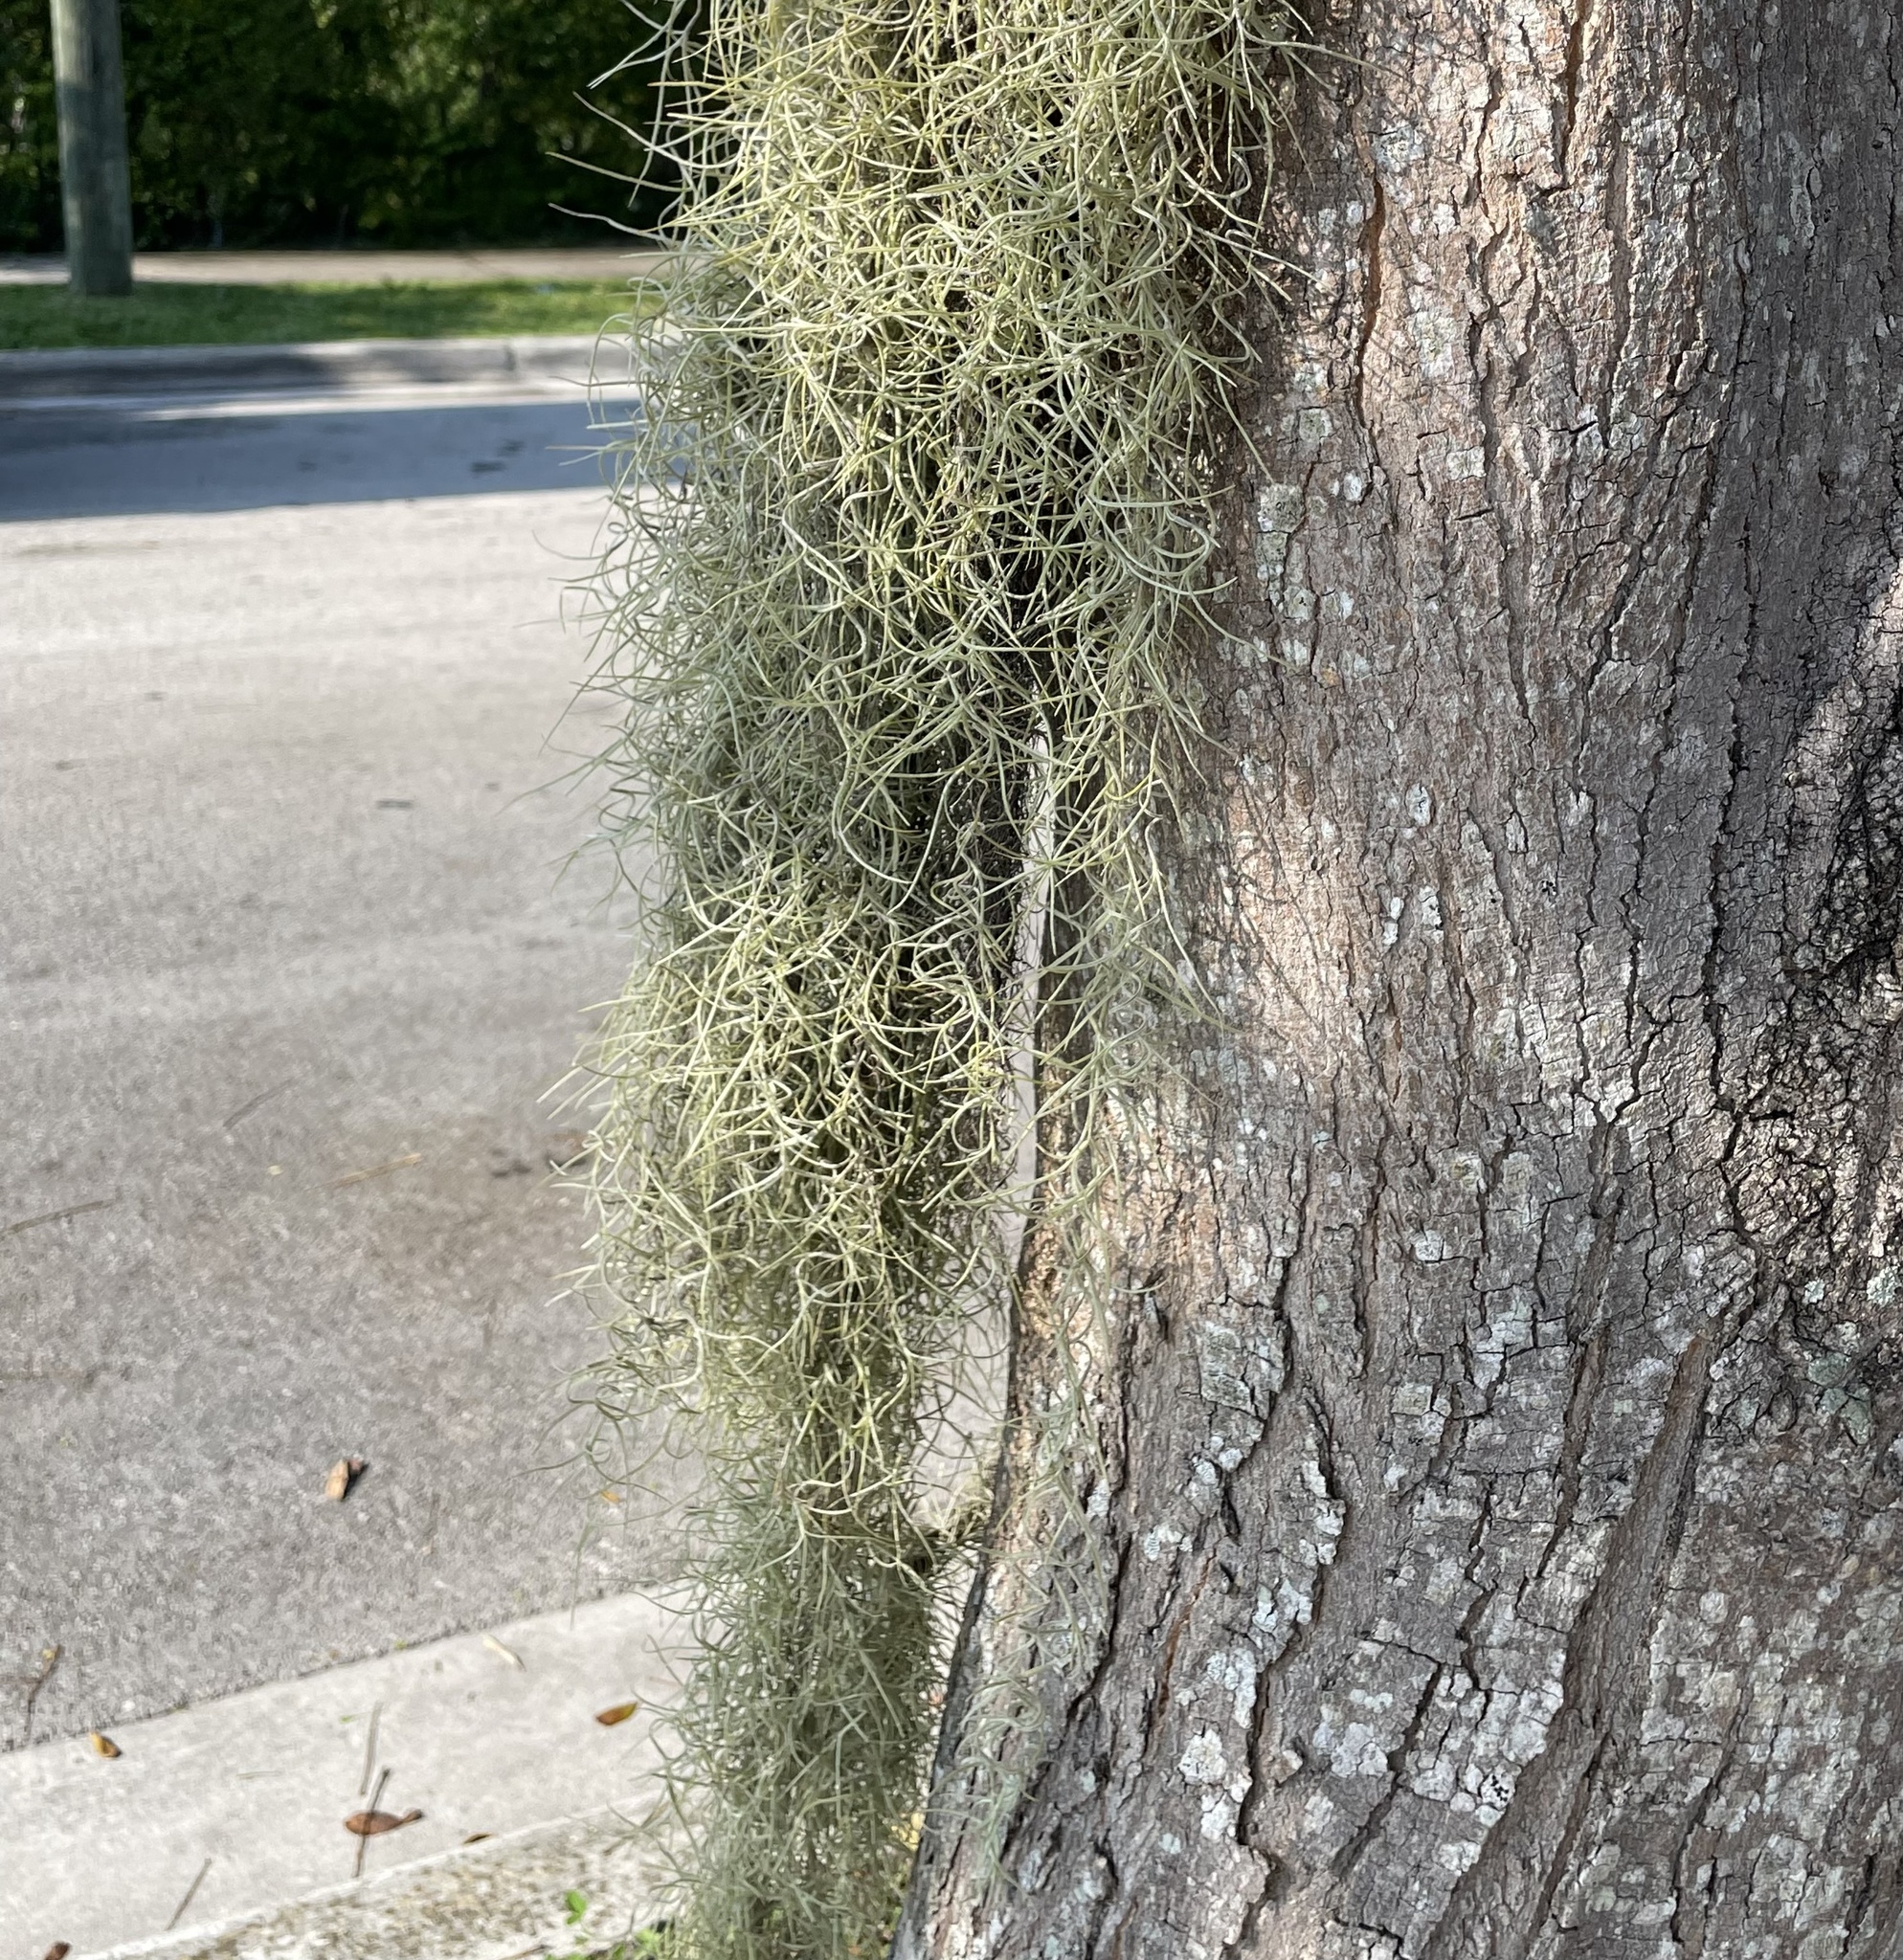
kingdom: Plantae
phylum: Tracheophyta
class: Liliopsida
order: Poales
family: Bromeliaceae
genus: Tillandsia
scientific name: Tillandsia usneoides
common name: Spanish moss
